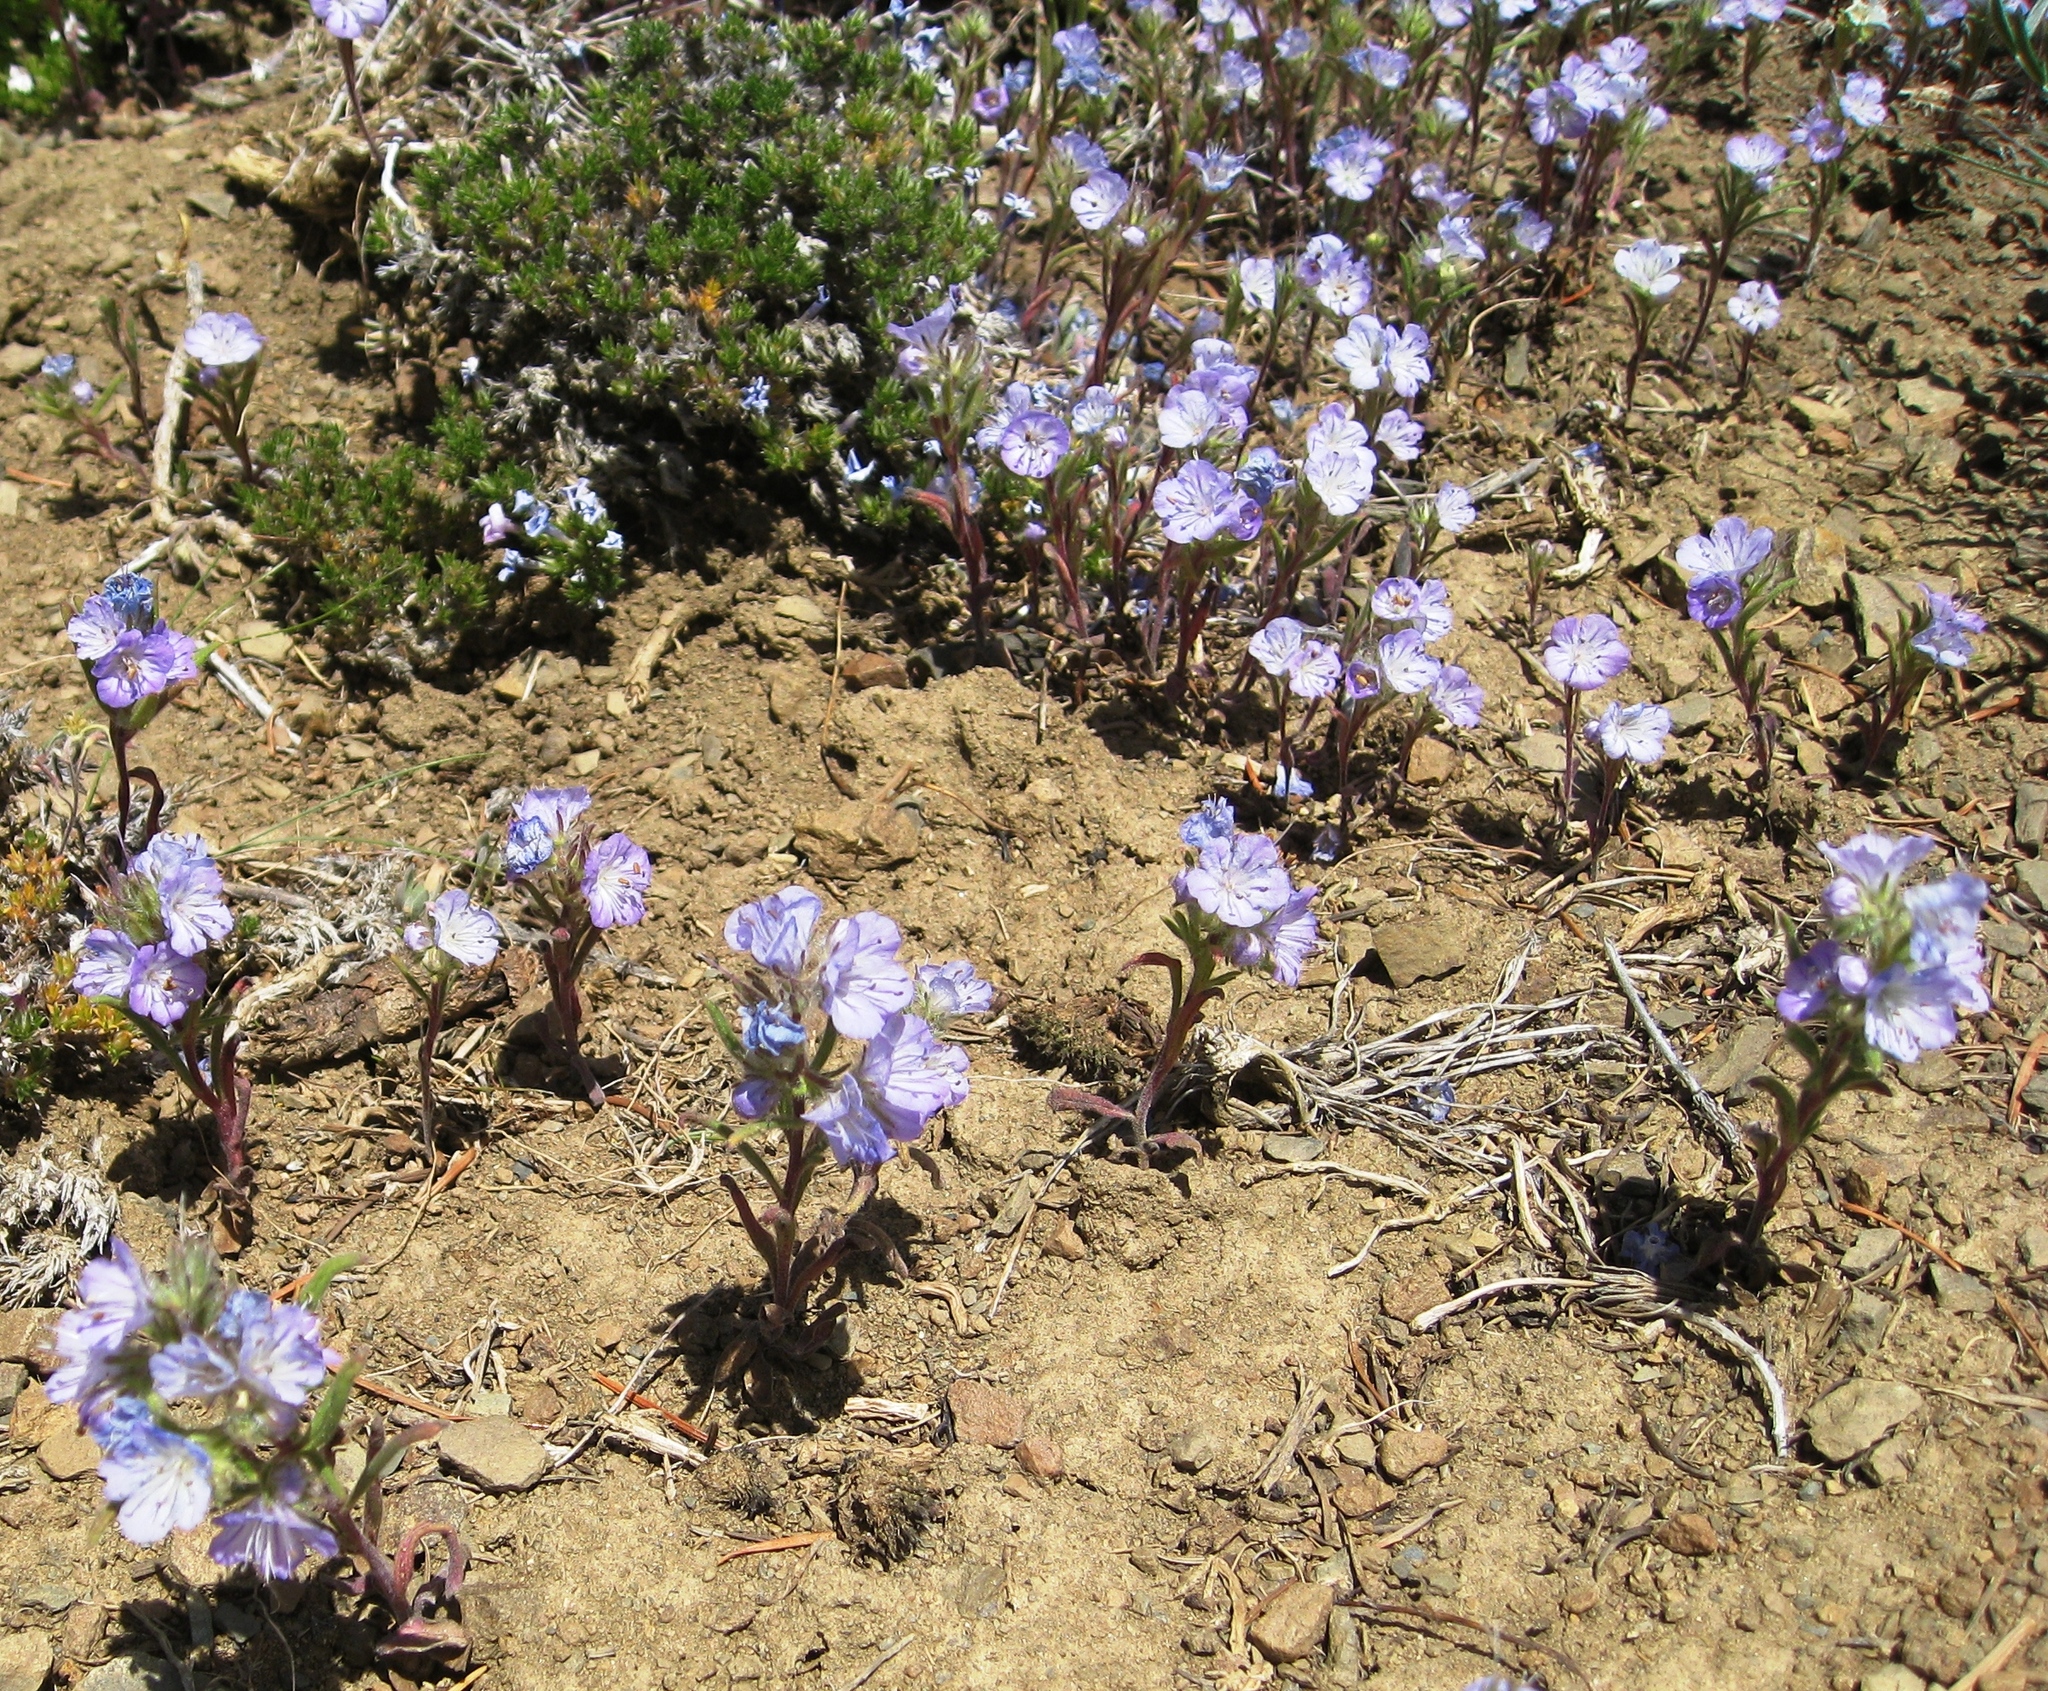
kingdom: Plantae
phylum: Tracheophyta
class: Magnoliopsida
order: Boraginales
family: Hydrophyllaceae
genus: Phacelia
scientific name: Phacelia linearis
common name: Linear-leaved phacelia
